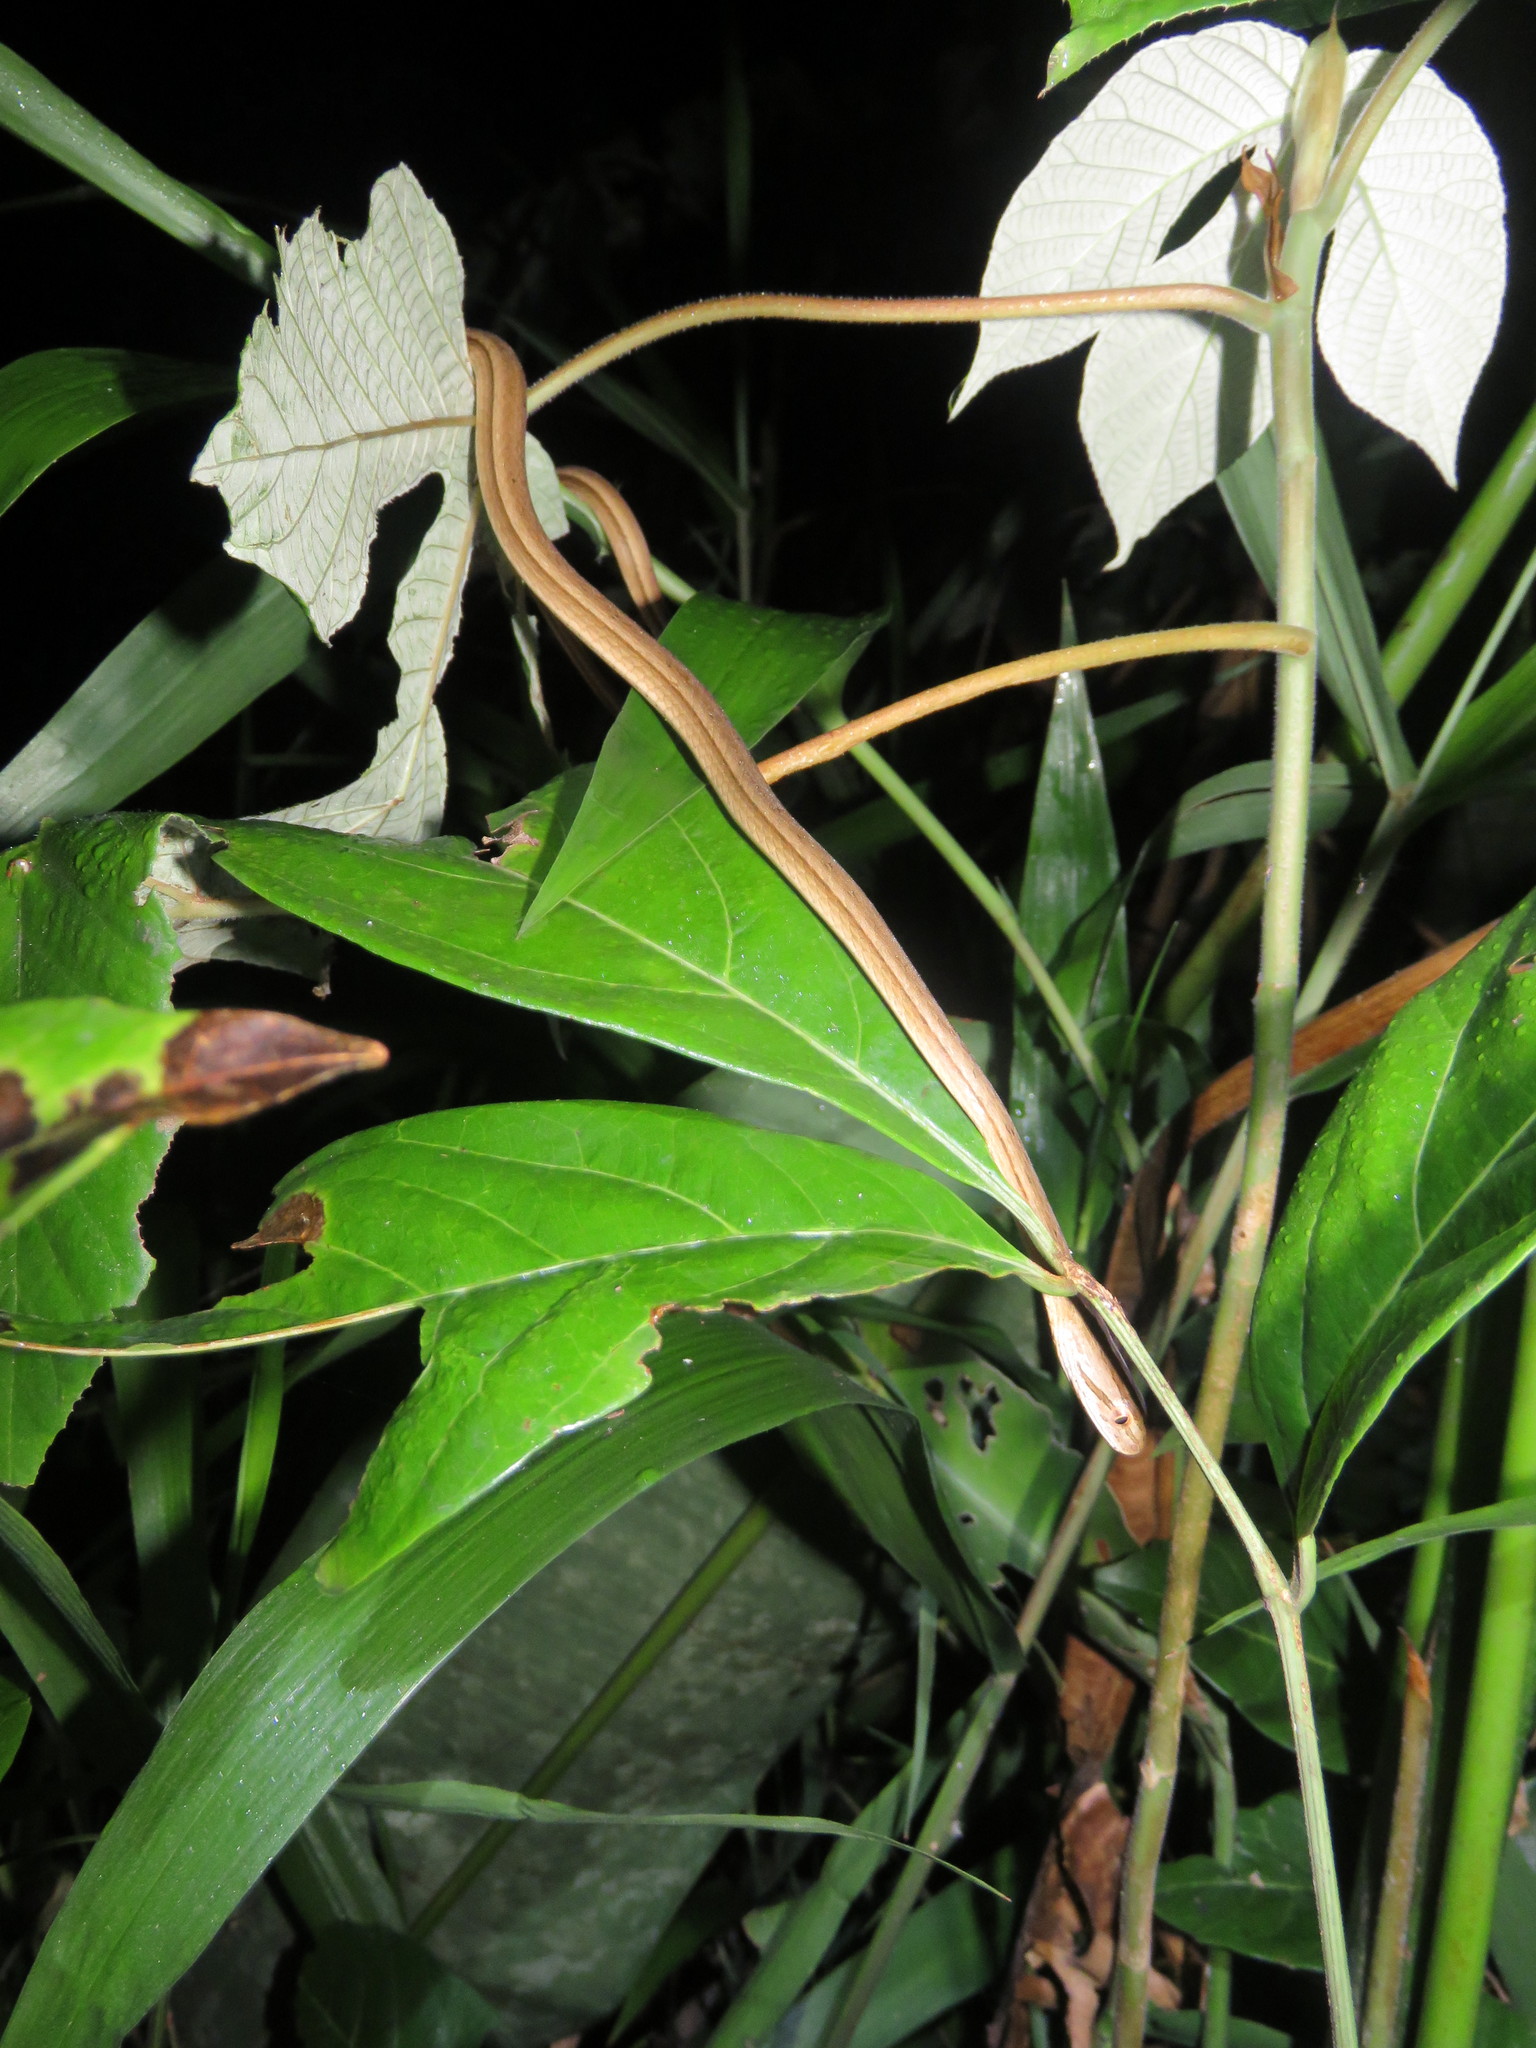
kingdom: Animalia
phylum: Chordata
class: Squamata
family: Colubridae
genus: Thamnodynastes
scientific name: Thamnodynastes pallidus
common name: Amazon coastal house snake
